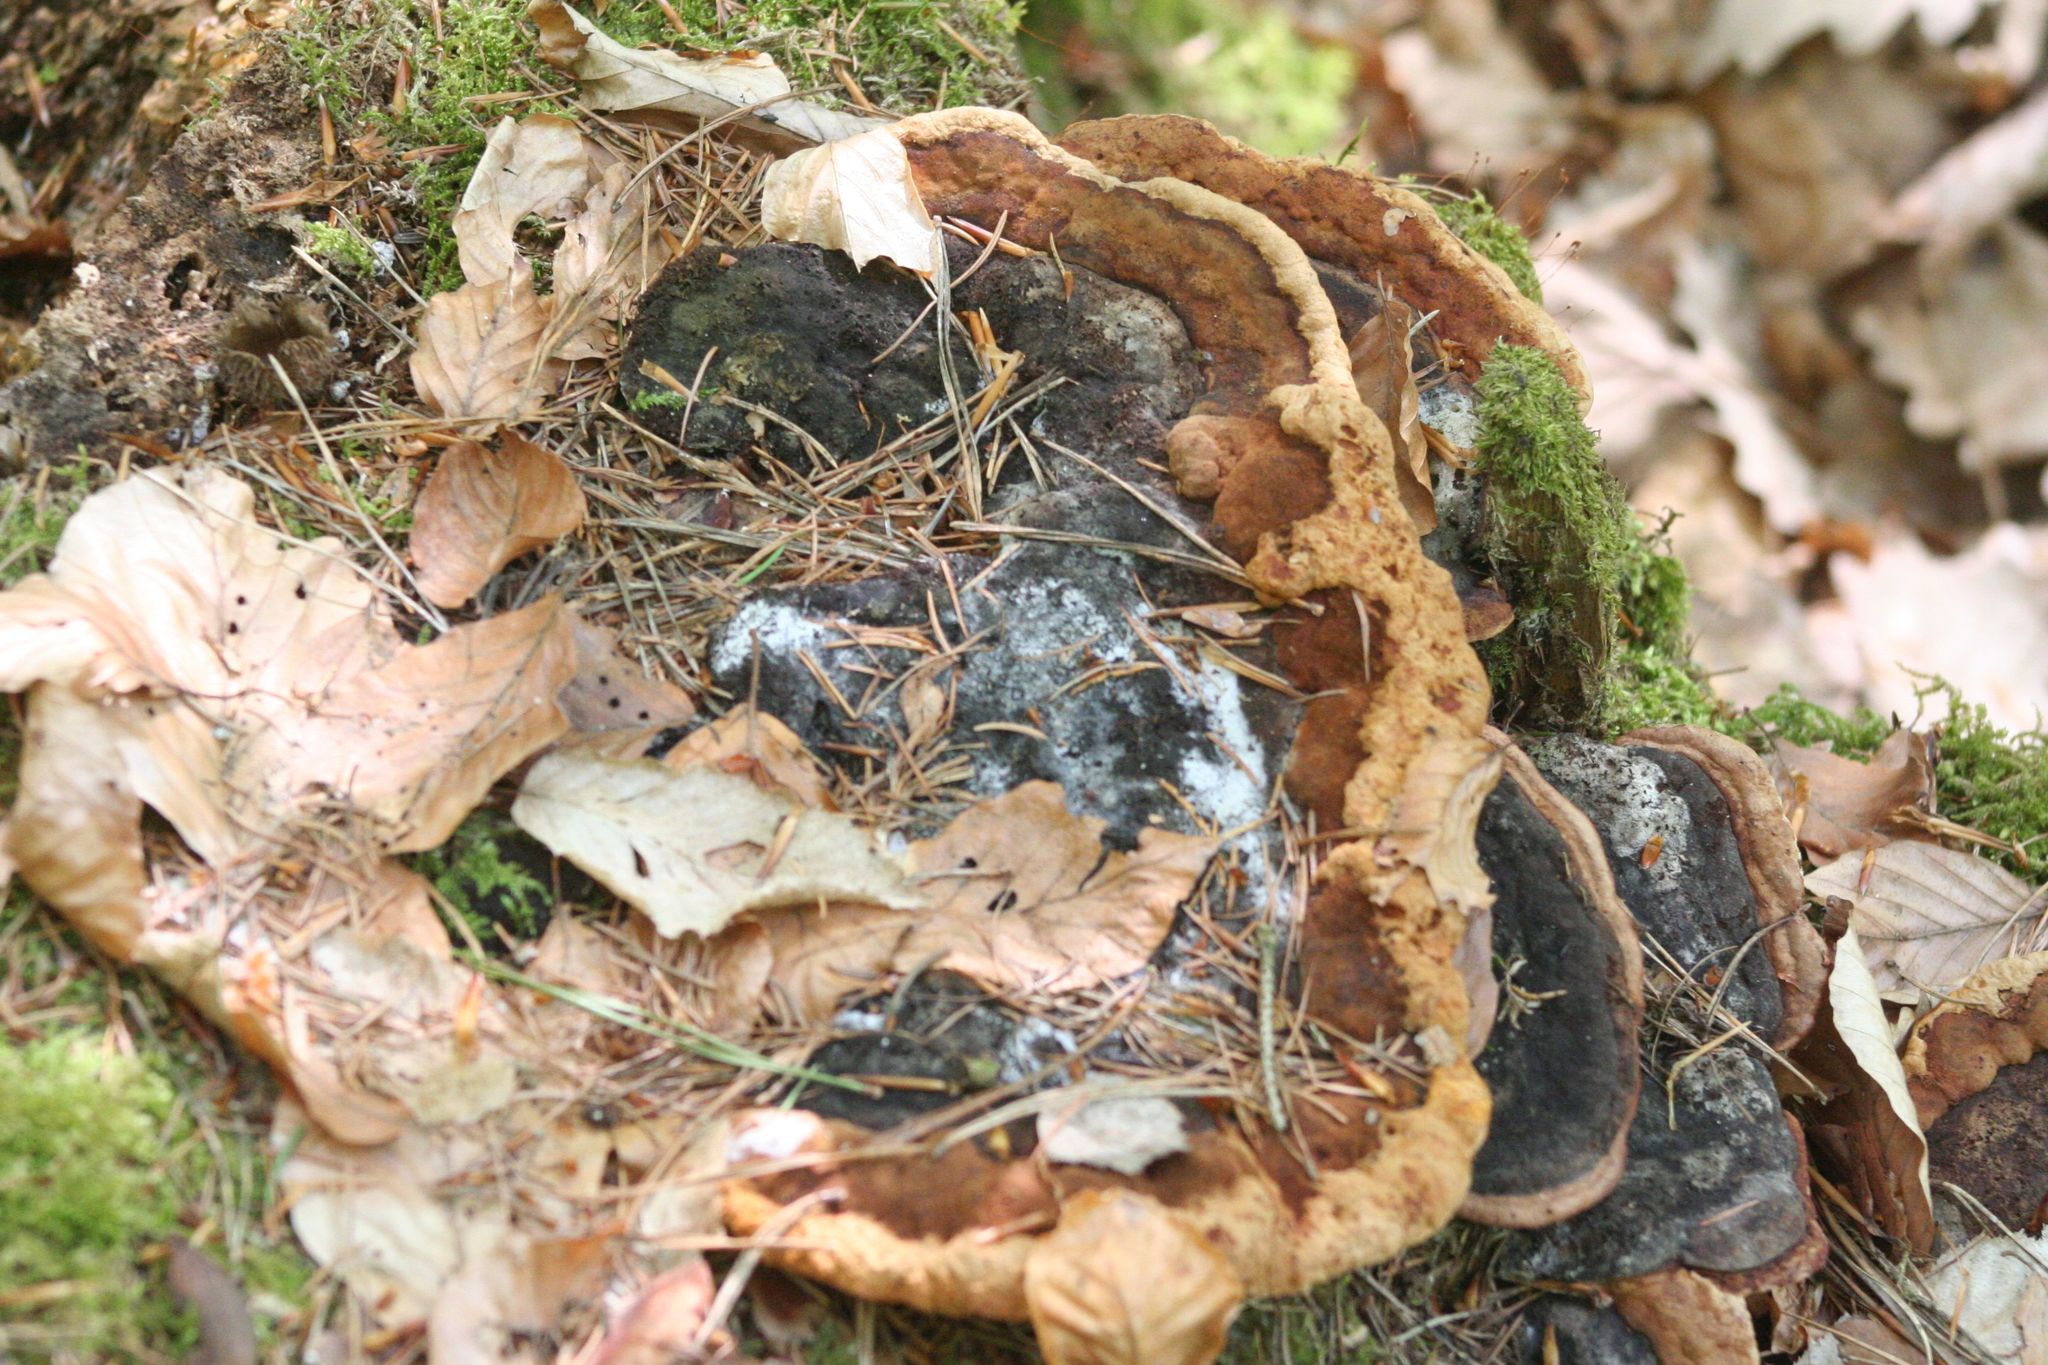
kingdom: Fungi
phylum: Basidiomycota
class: Agaricomycetes
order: Gloeophyllales
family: Gloeophyllaceae
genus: Gloeophyllum
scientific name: Gloeophyllum odoratum
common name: Anise mazegill
